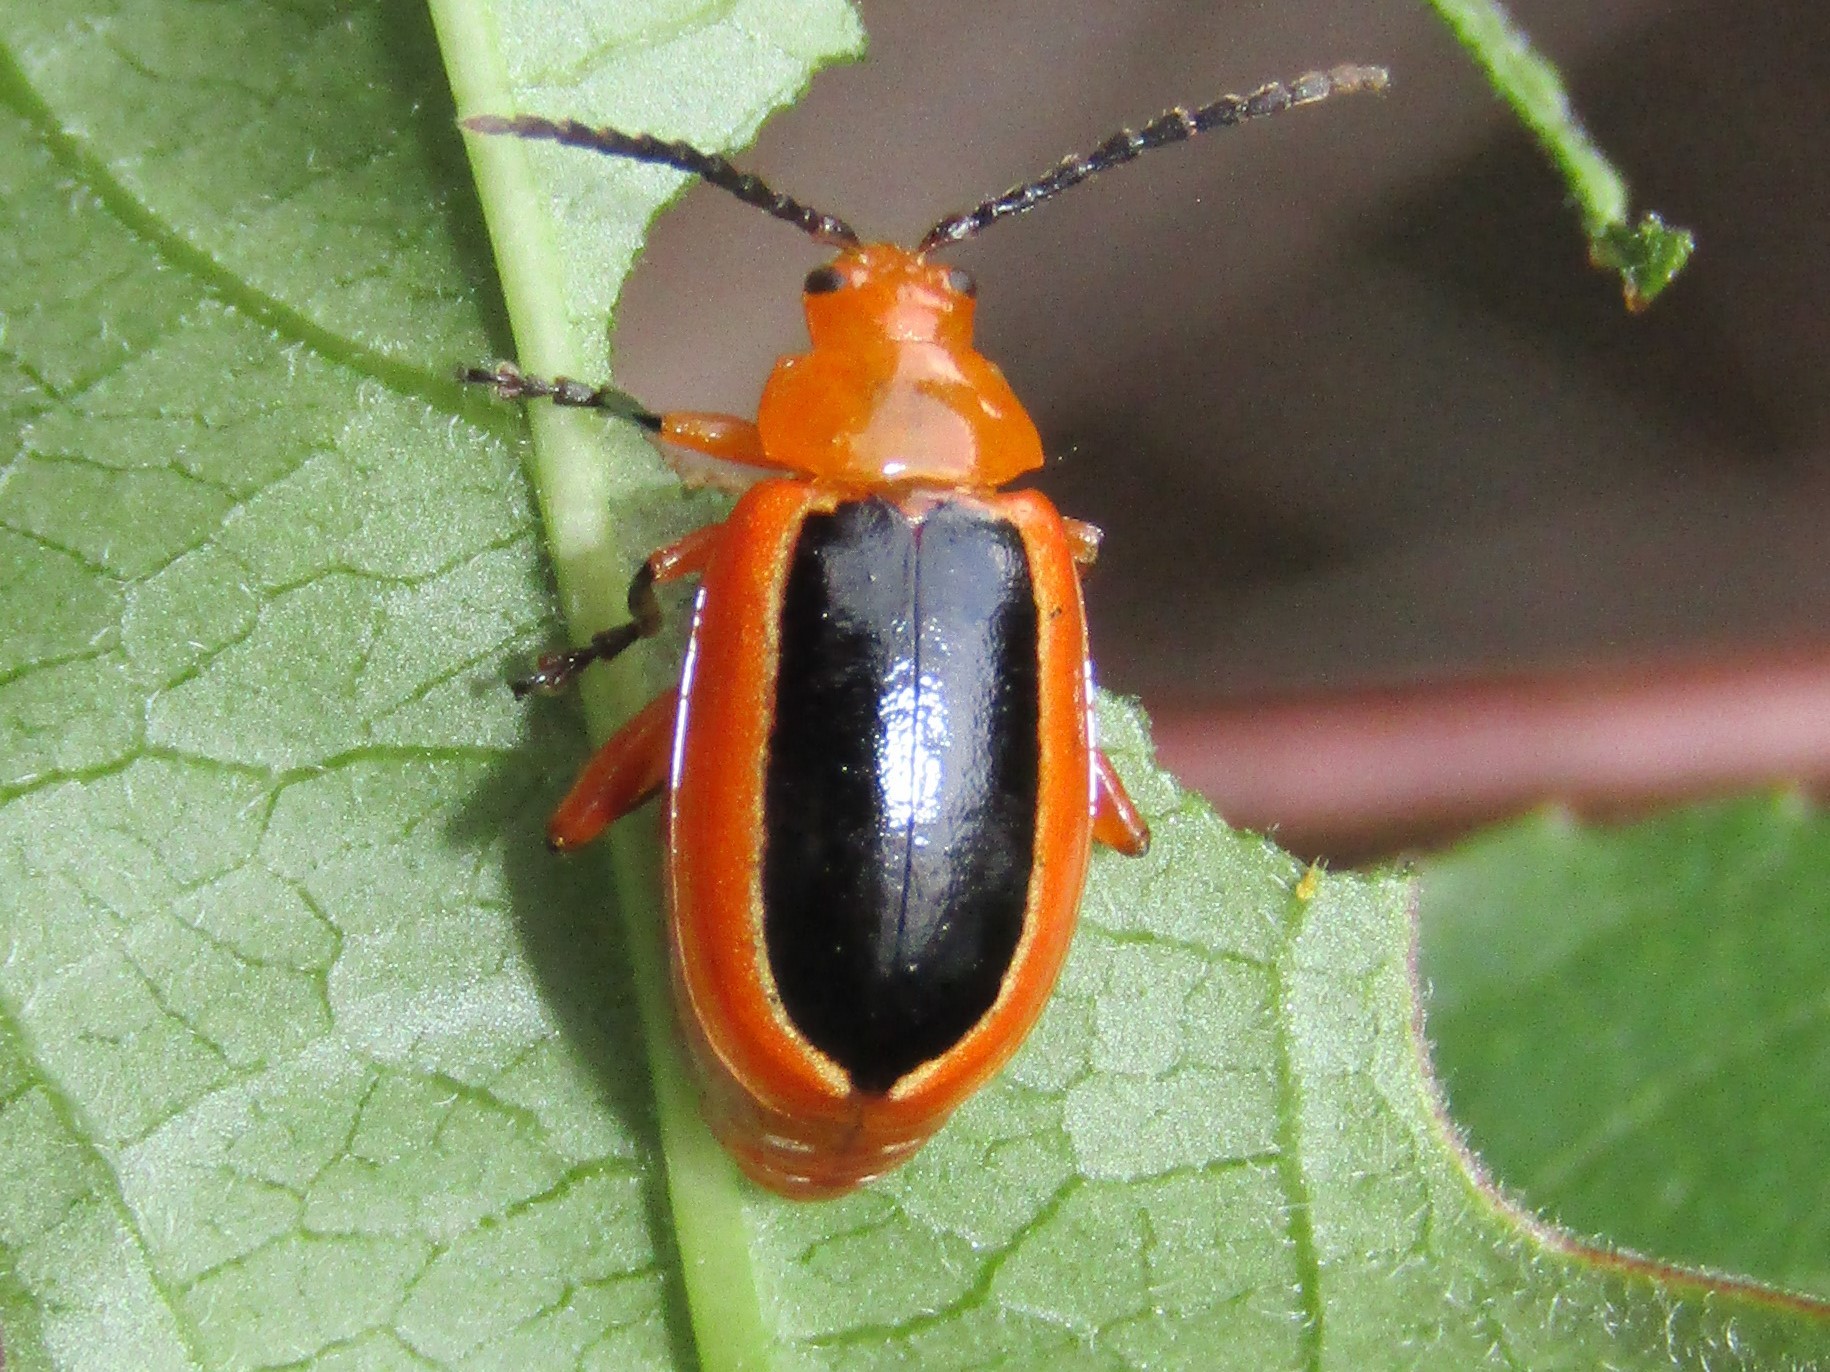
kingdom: Animalia
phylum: Arthropoda
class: Insecta
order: Coleoptera
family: Chrysomelidae
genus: Disonycha
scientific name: Disonycha discoidea
